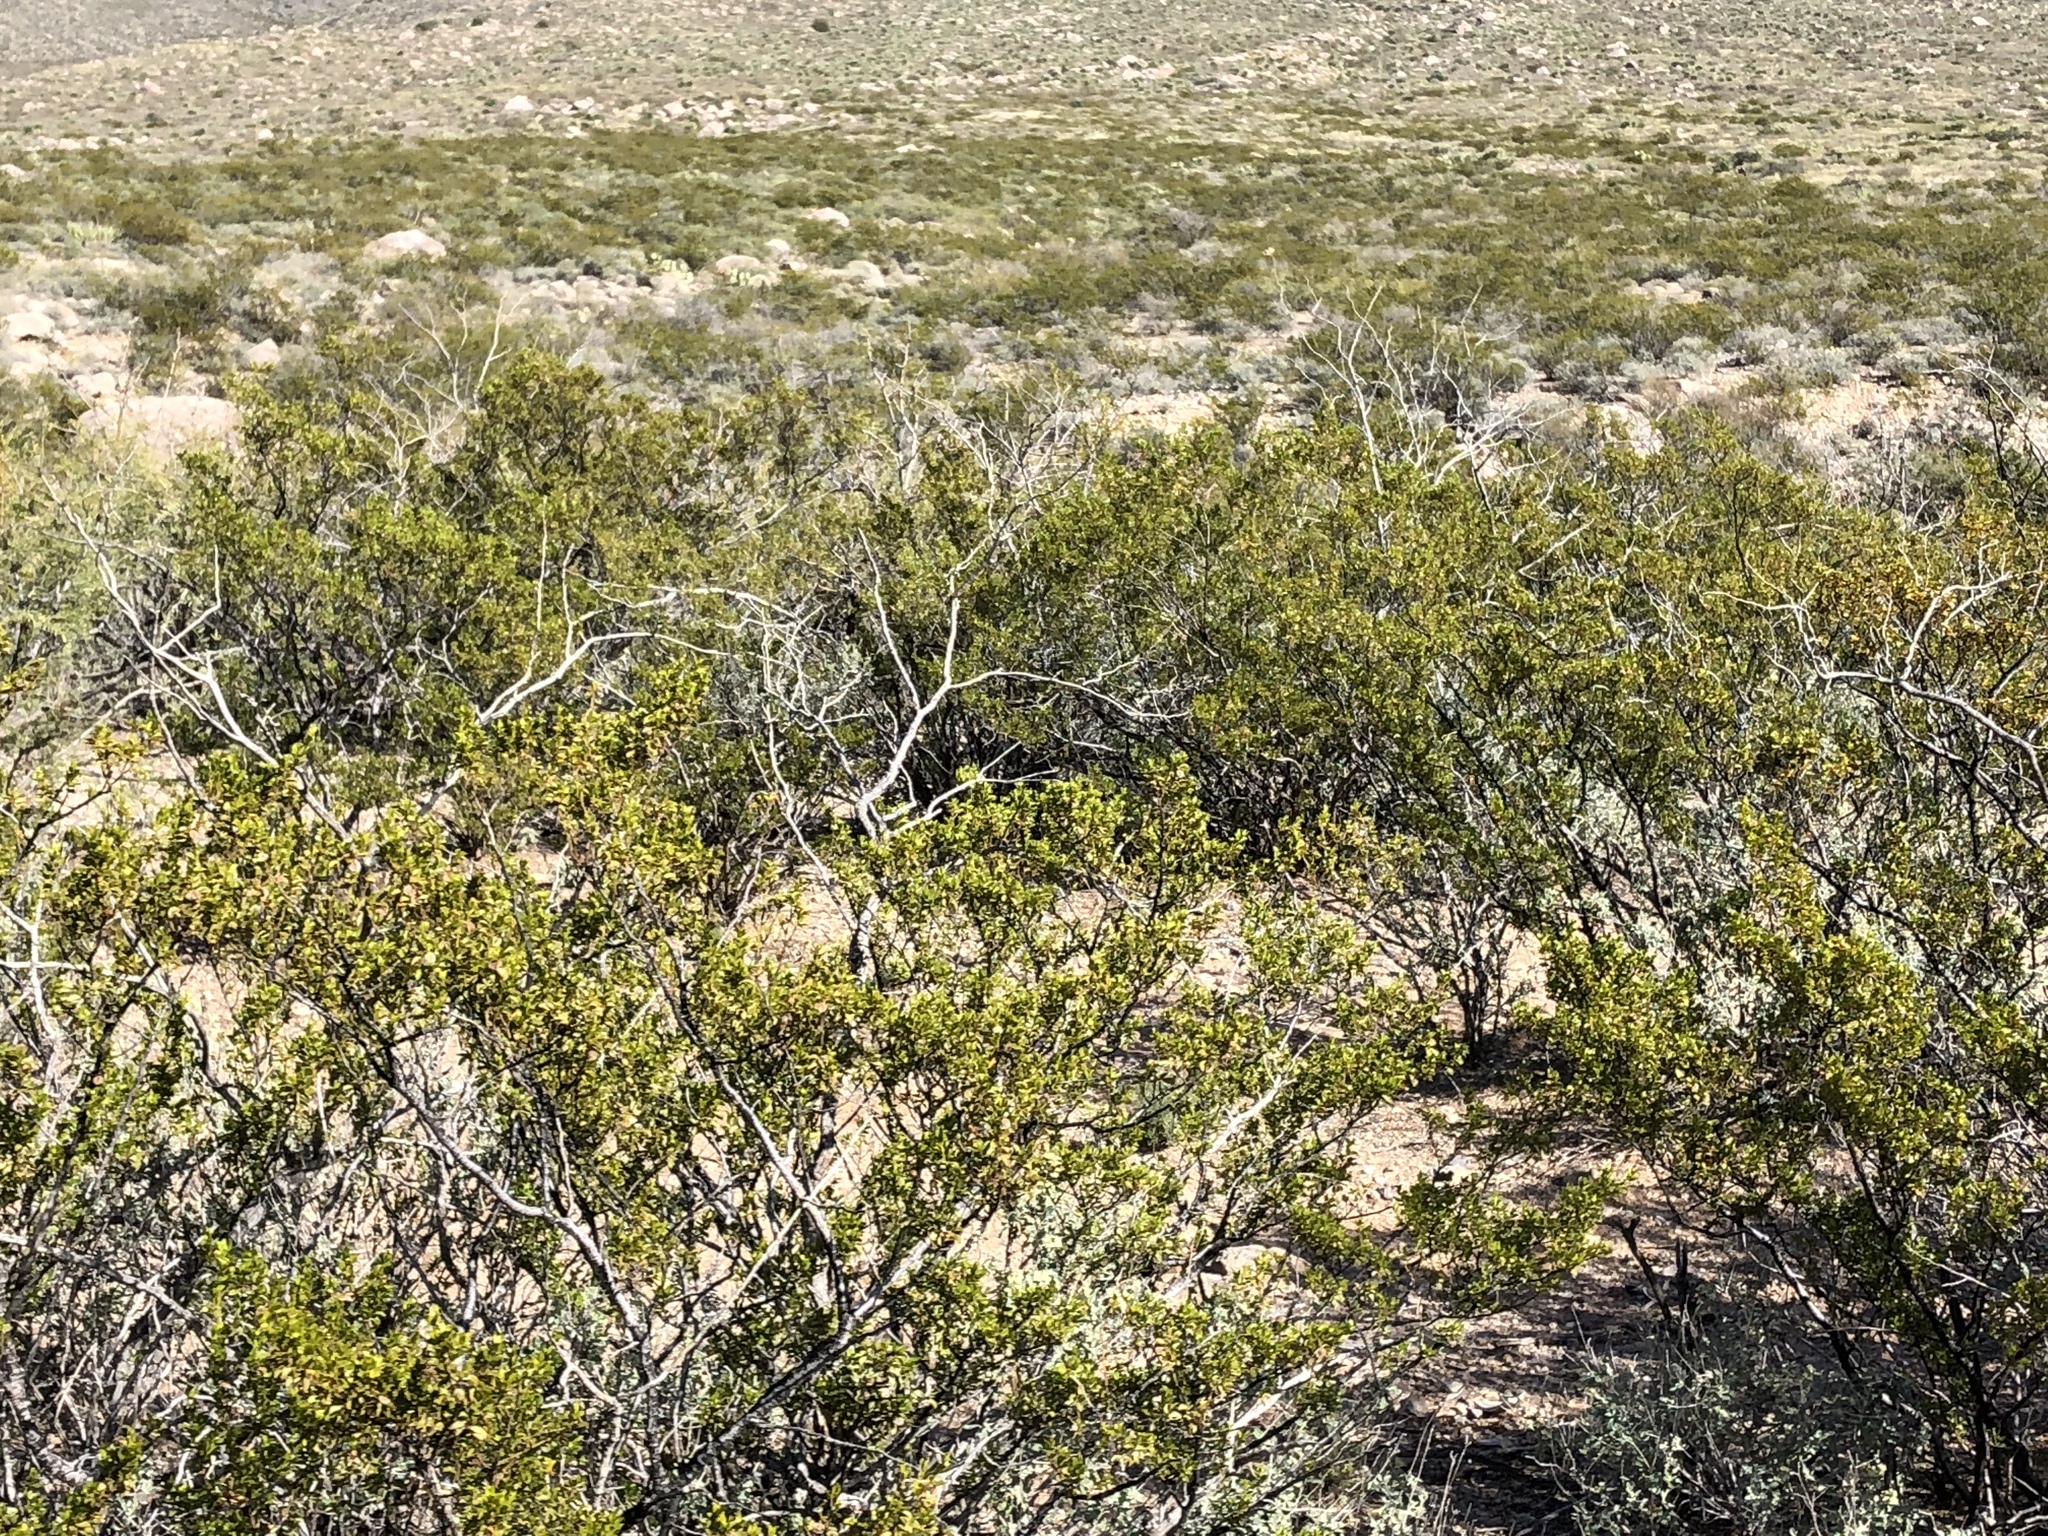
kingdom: Plantae
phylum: Tracheophyta
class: Magnoliopsida
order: Zygophyllales
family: Zygophyllaceae
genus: Larrea
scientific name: Larrea tridentata
